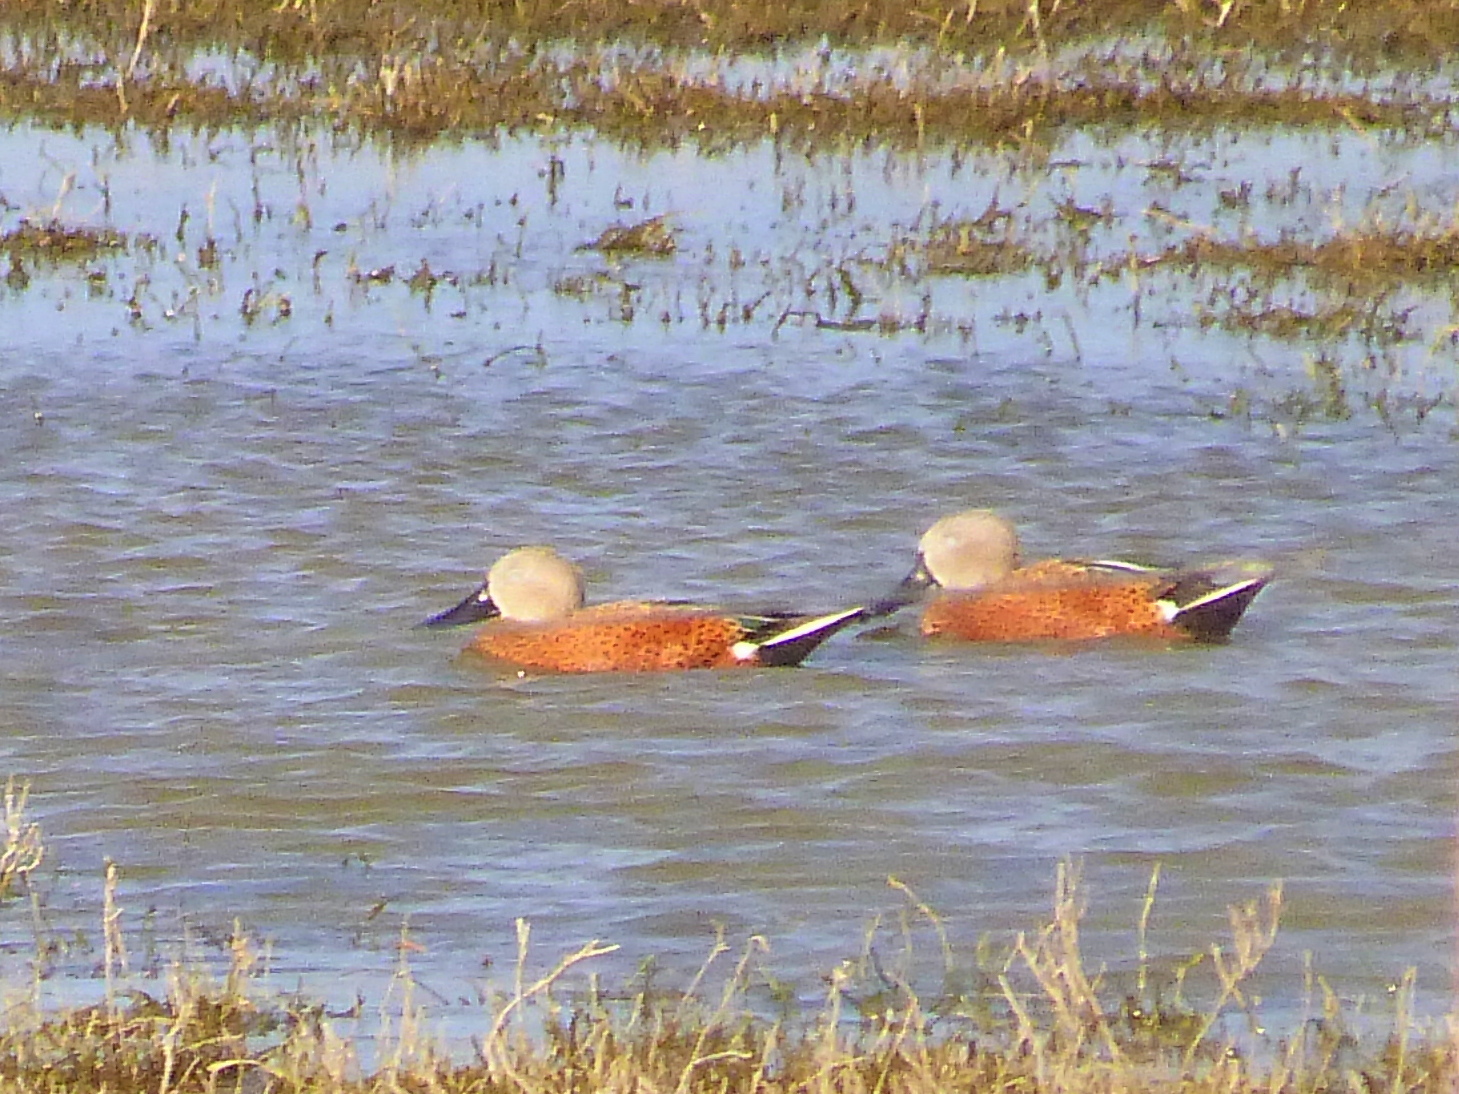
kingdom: Animalia
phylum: Chordata
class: Aves
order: Anseriformes
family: Anatidae
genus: Spatula
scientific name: Spatula platalea
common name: Red shoveler
